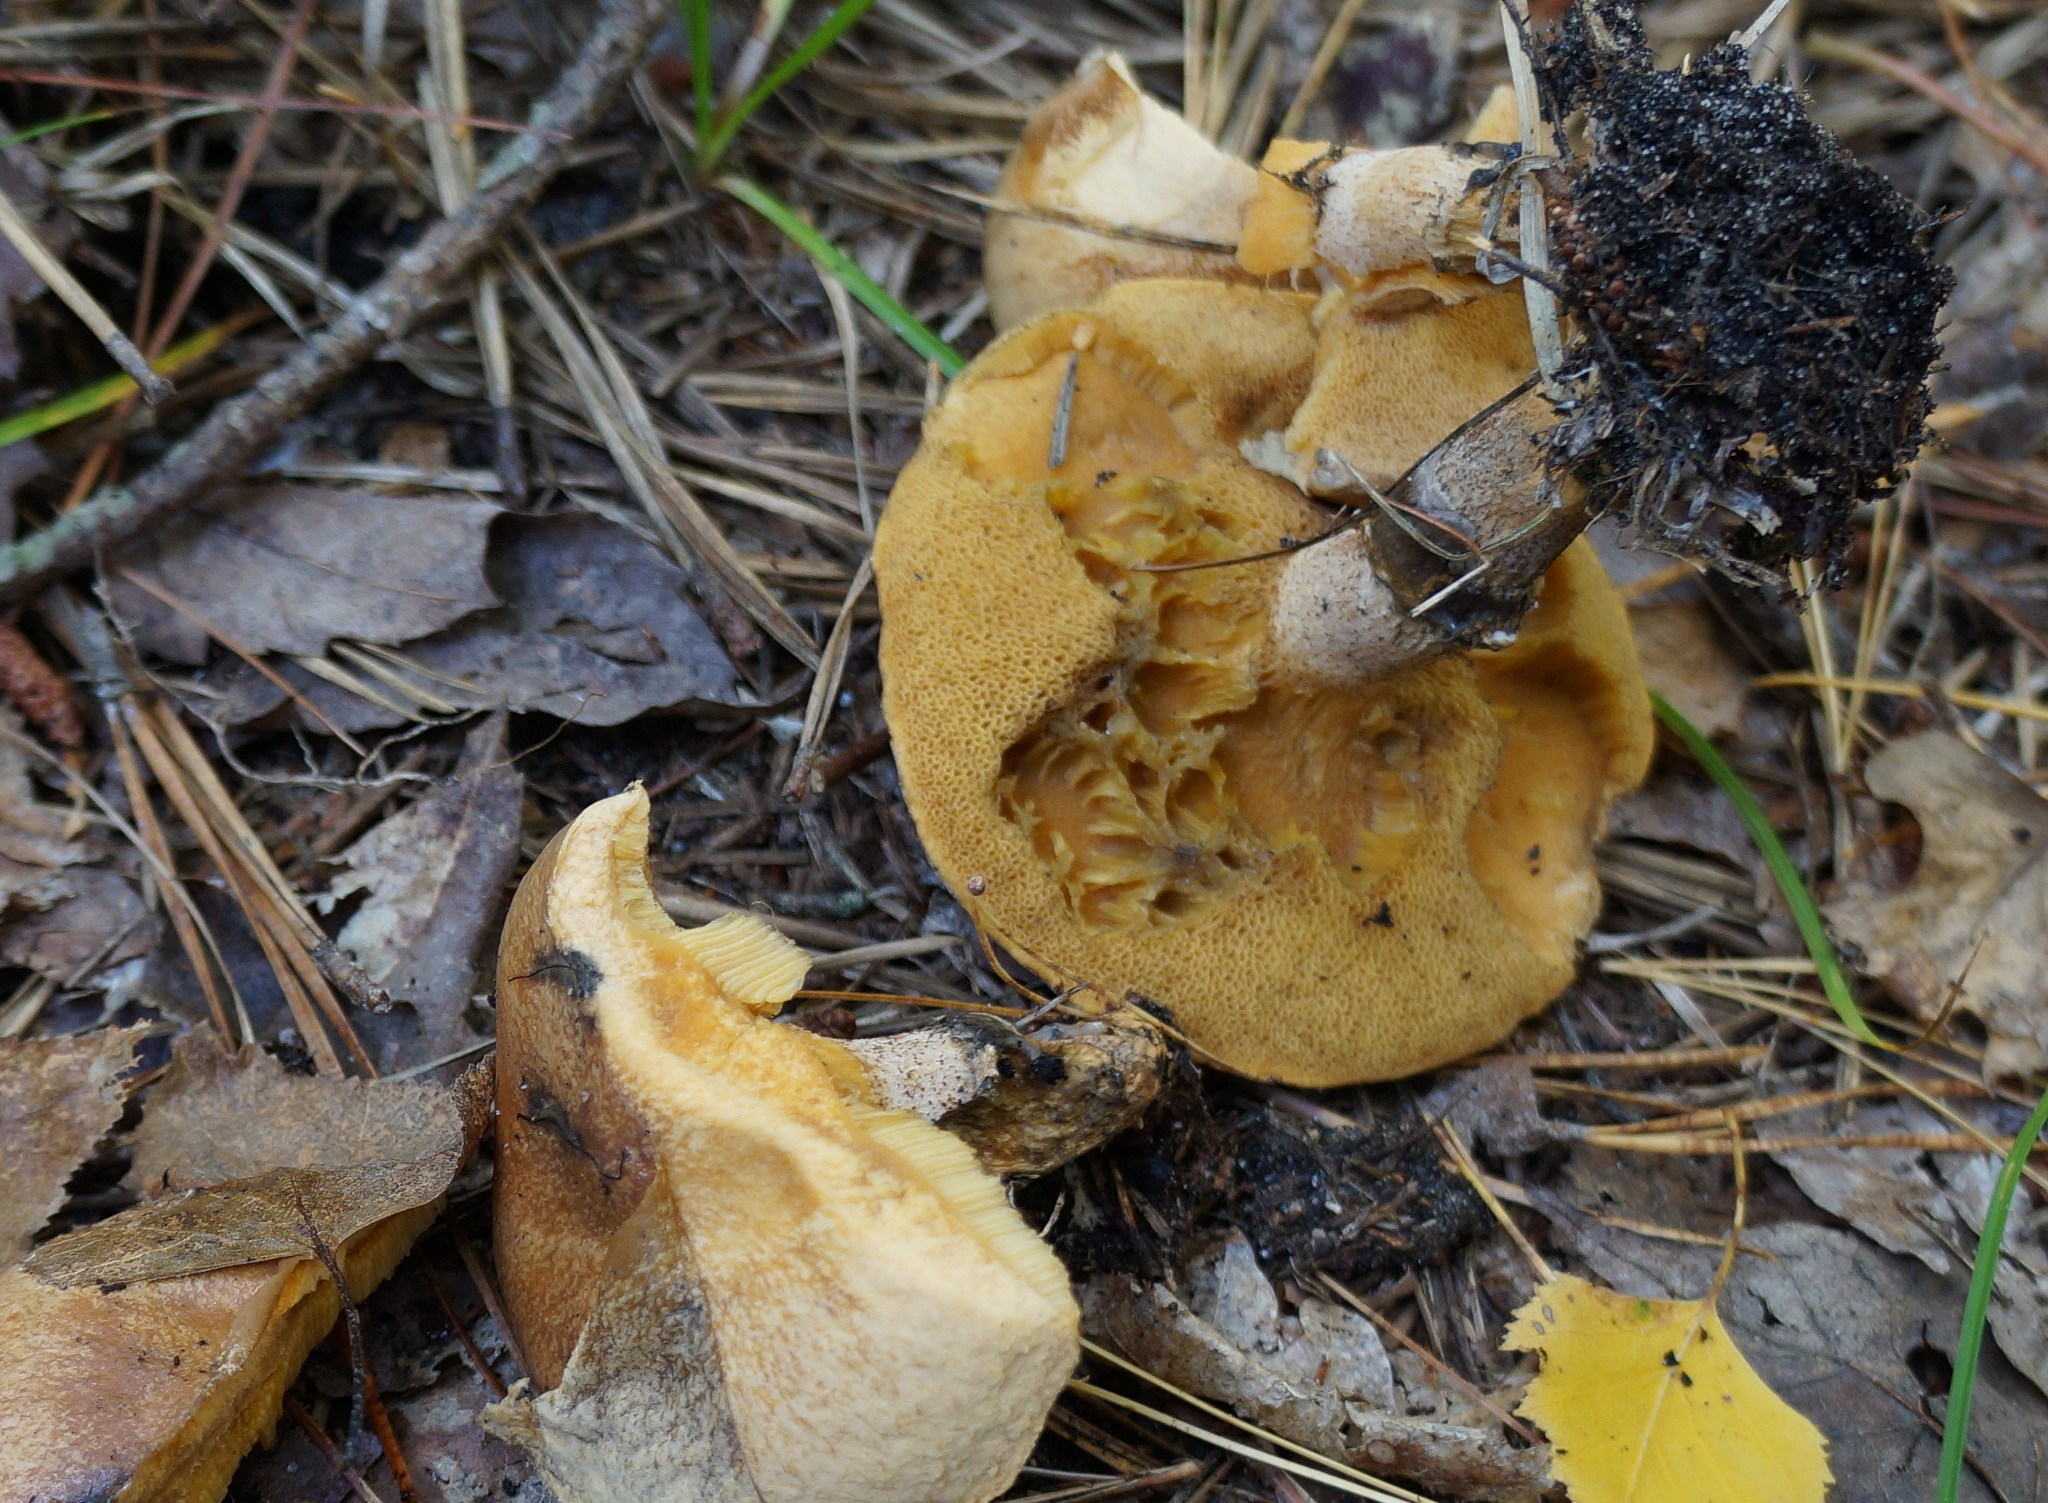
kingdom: Fungi
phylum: Basidiomycota
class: Agaricomycetes
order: Boletales
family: Suillaceae
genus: Suillus
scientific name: Suillus salmonicolor
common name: Slippery jill
